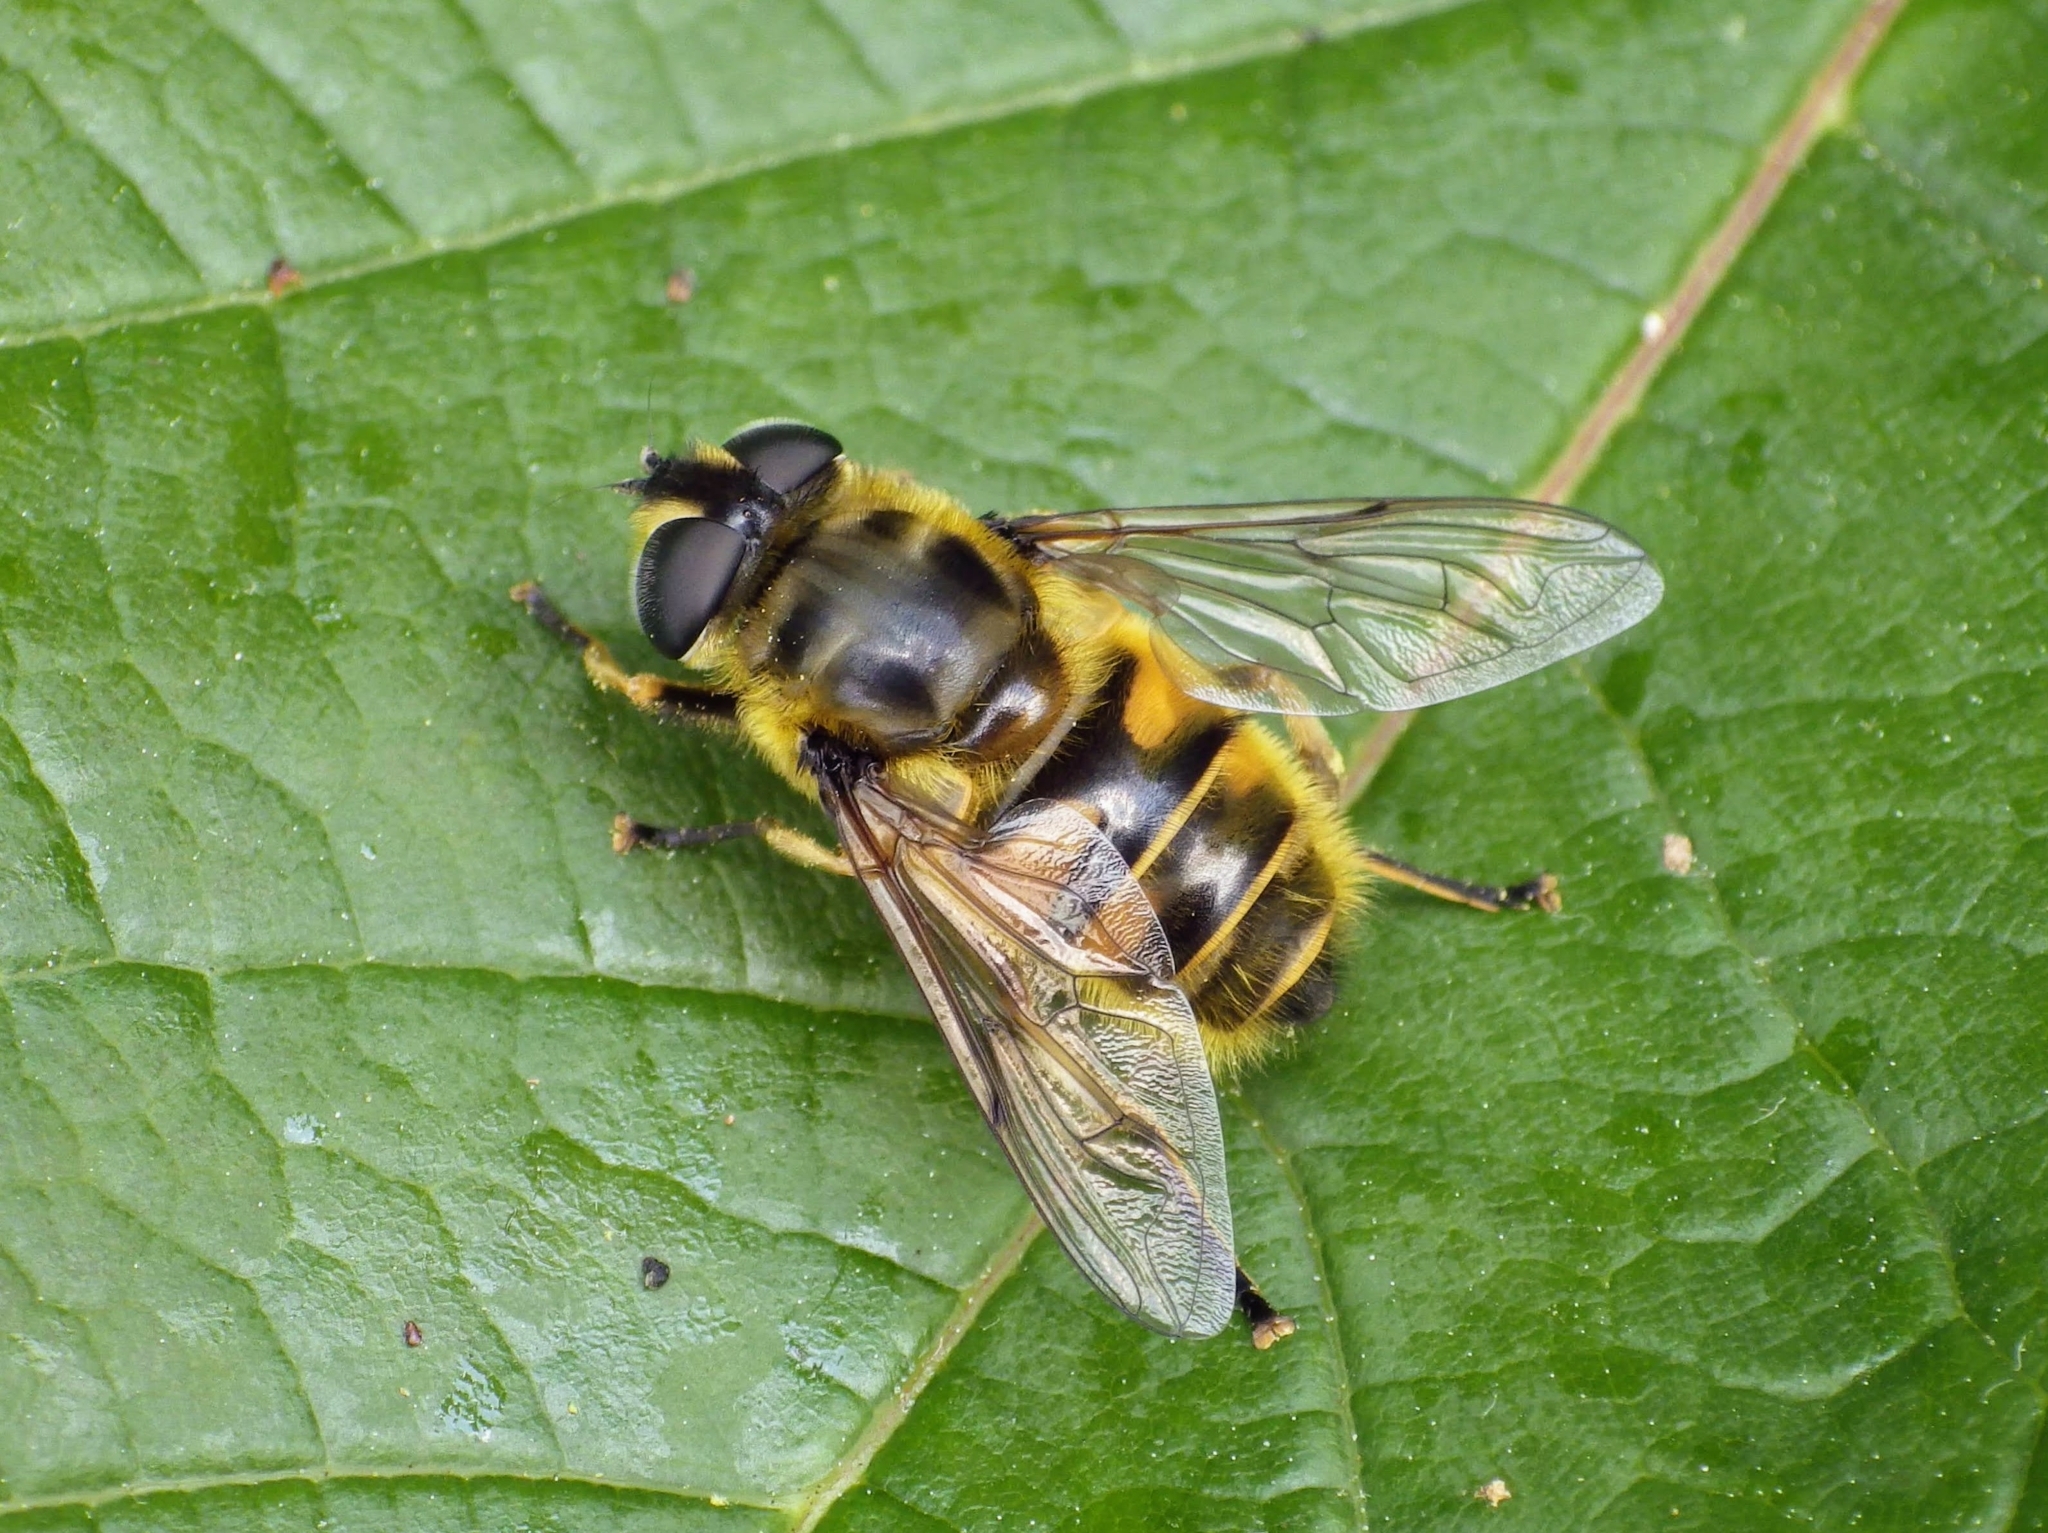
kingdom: Animalia
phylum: Arthropoda
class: Insecta
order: Diptera
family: Syrphidae
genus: Myathropa
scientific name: Myathropa florea
